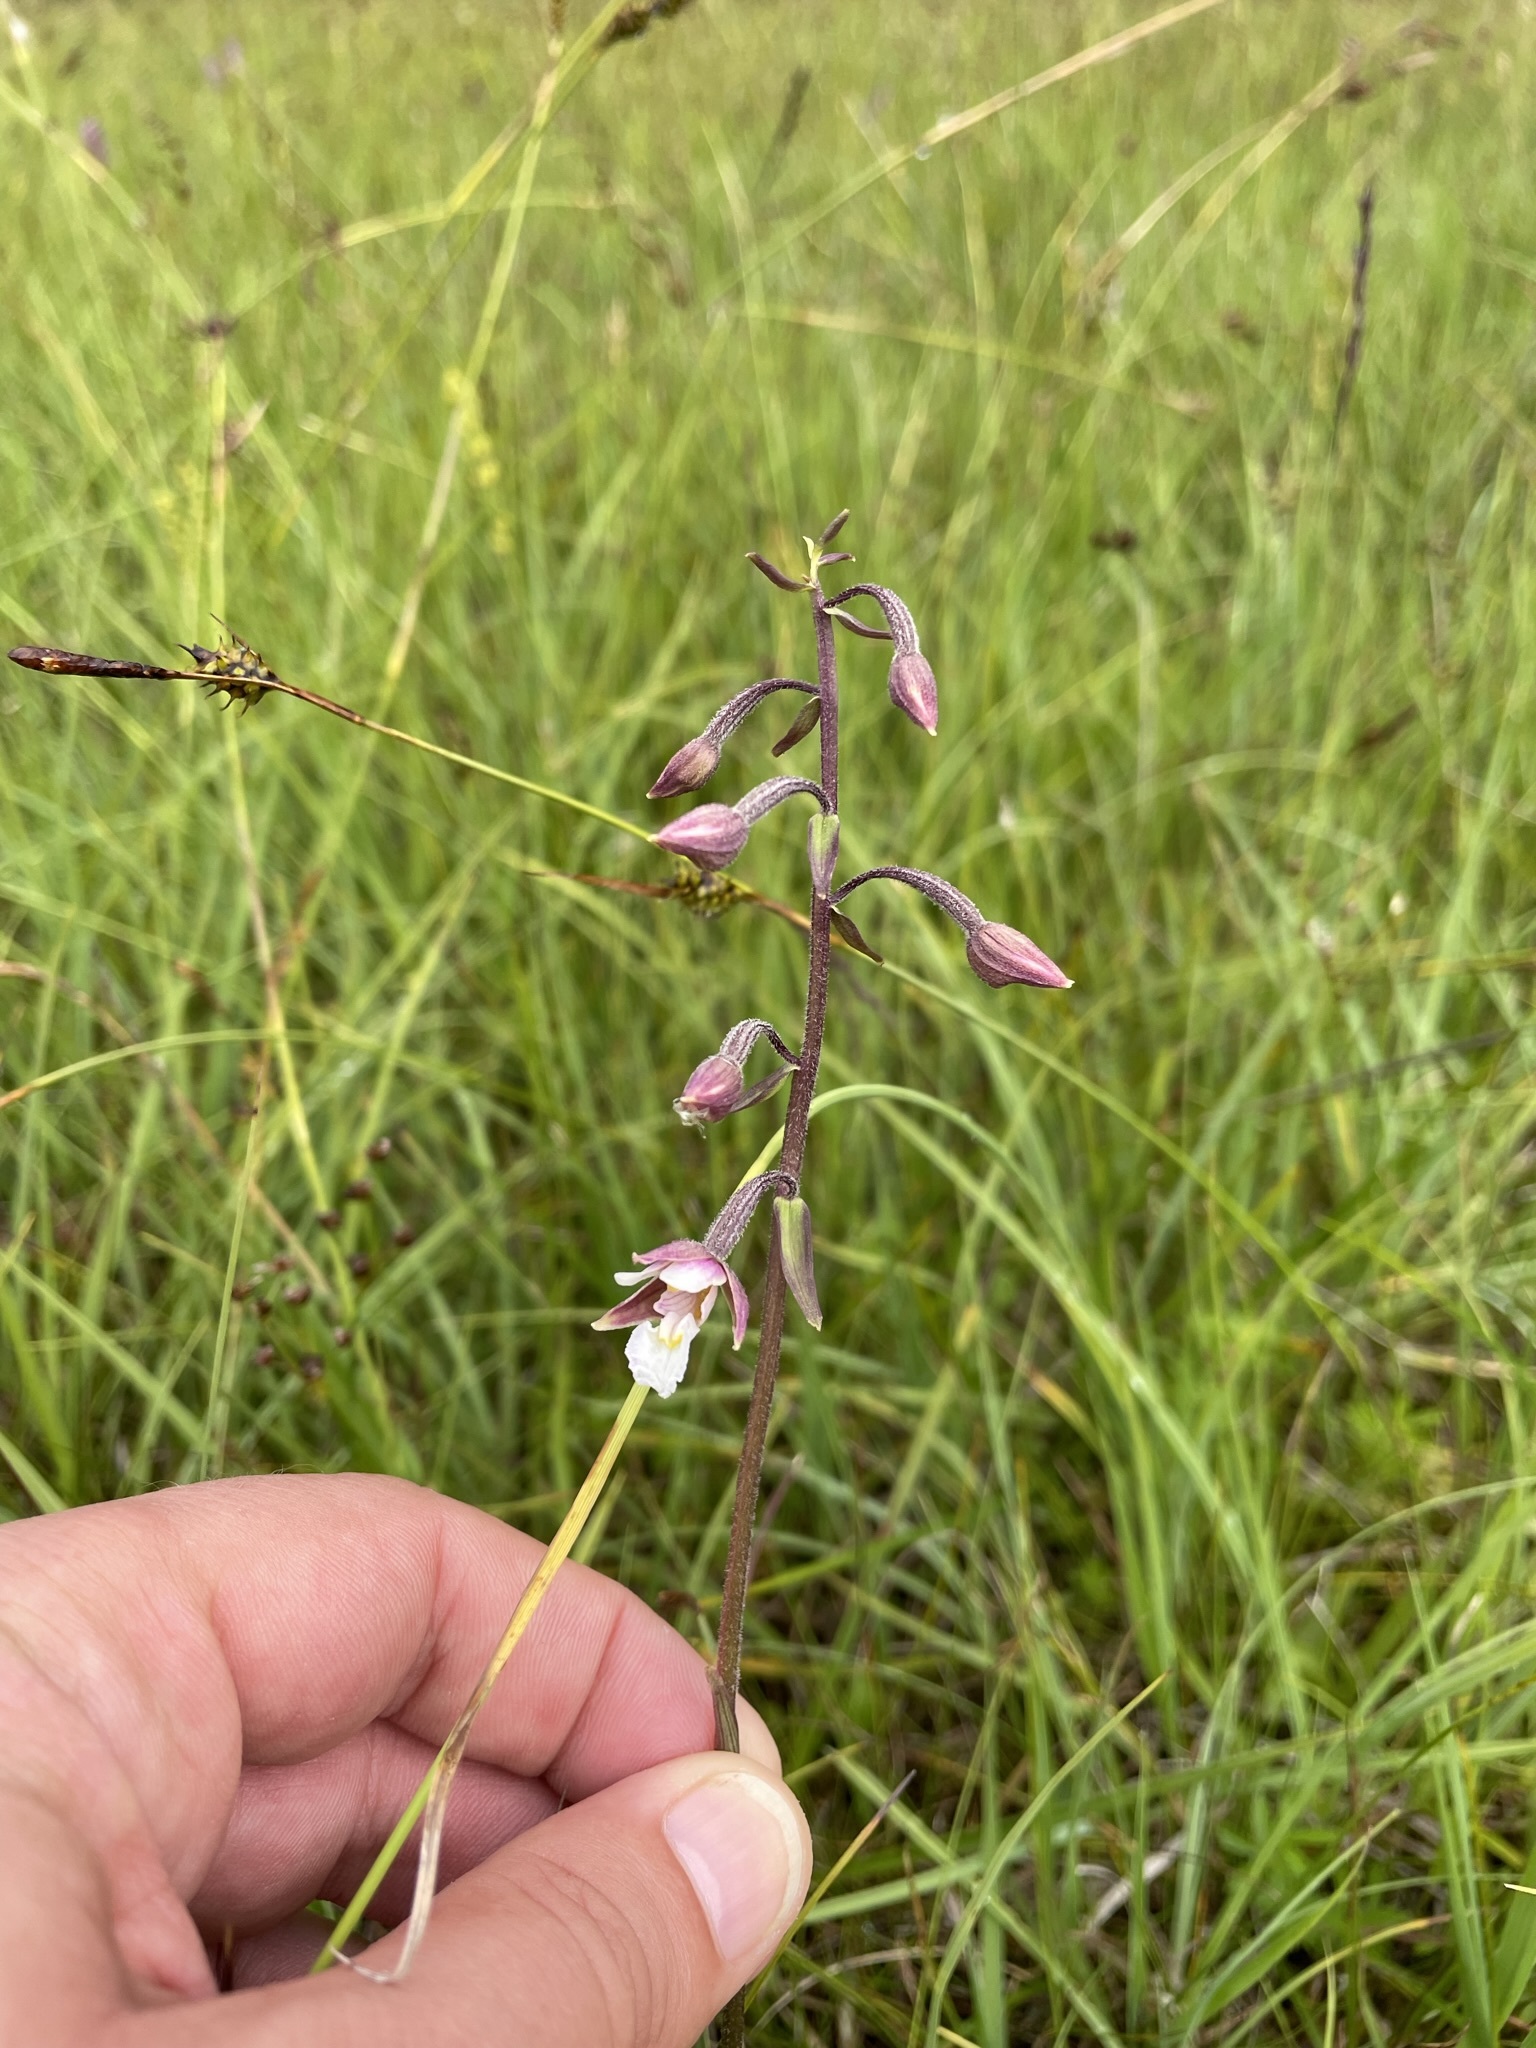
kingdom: Plantae
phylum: Tracheophyta
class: Liliopsida
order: Asparagales
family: Orchidaceae
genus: Epipactis
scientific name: Epipactis palustris
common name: Marsh helleborine
